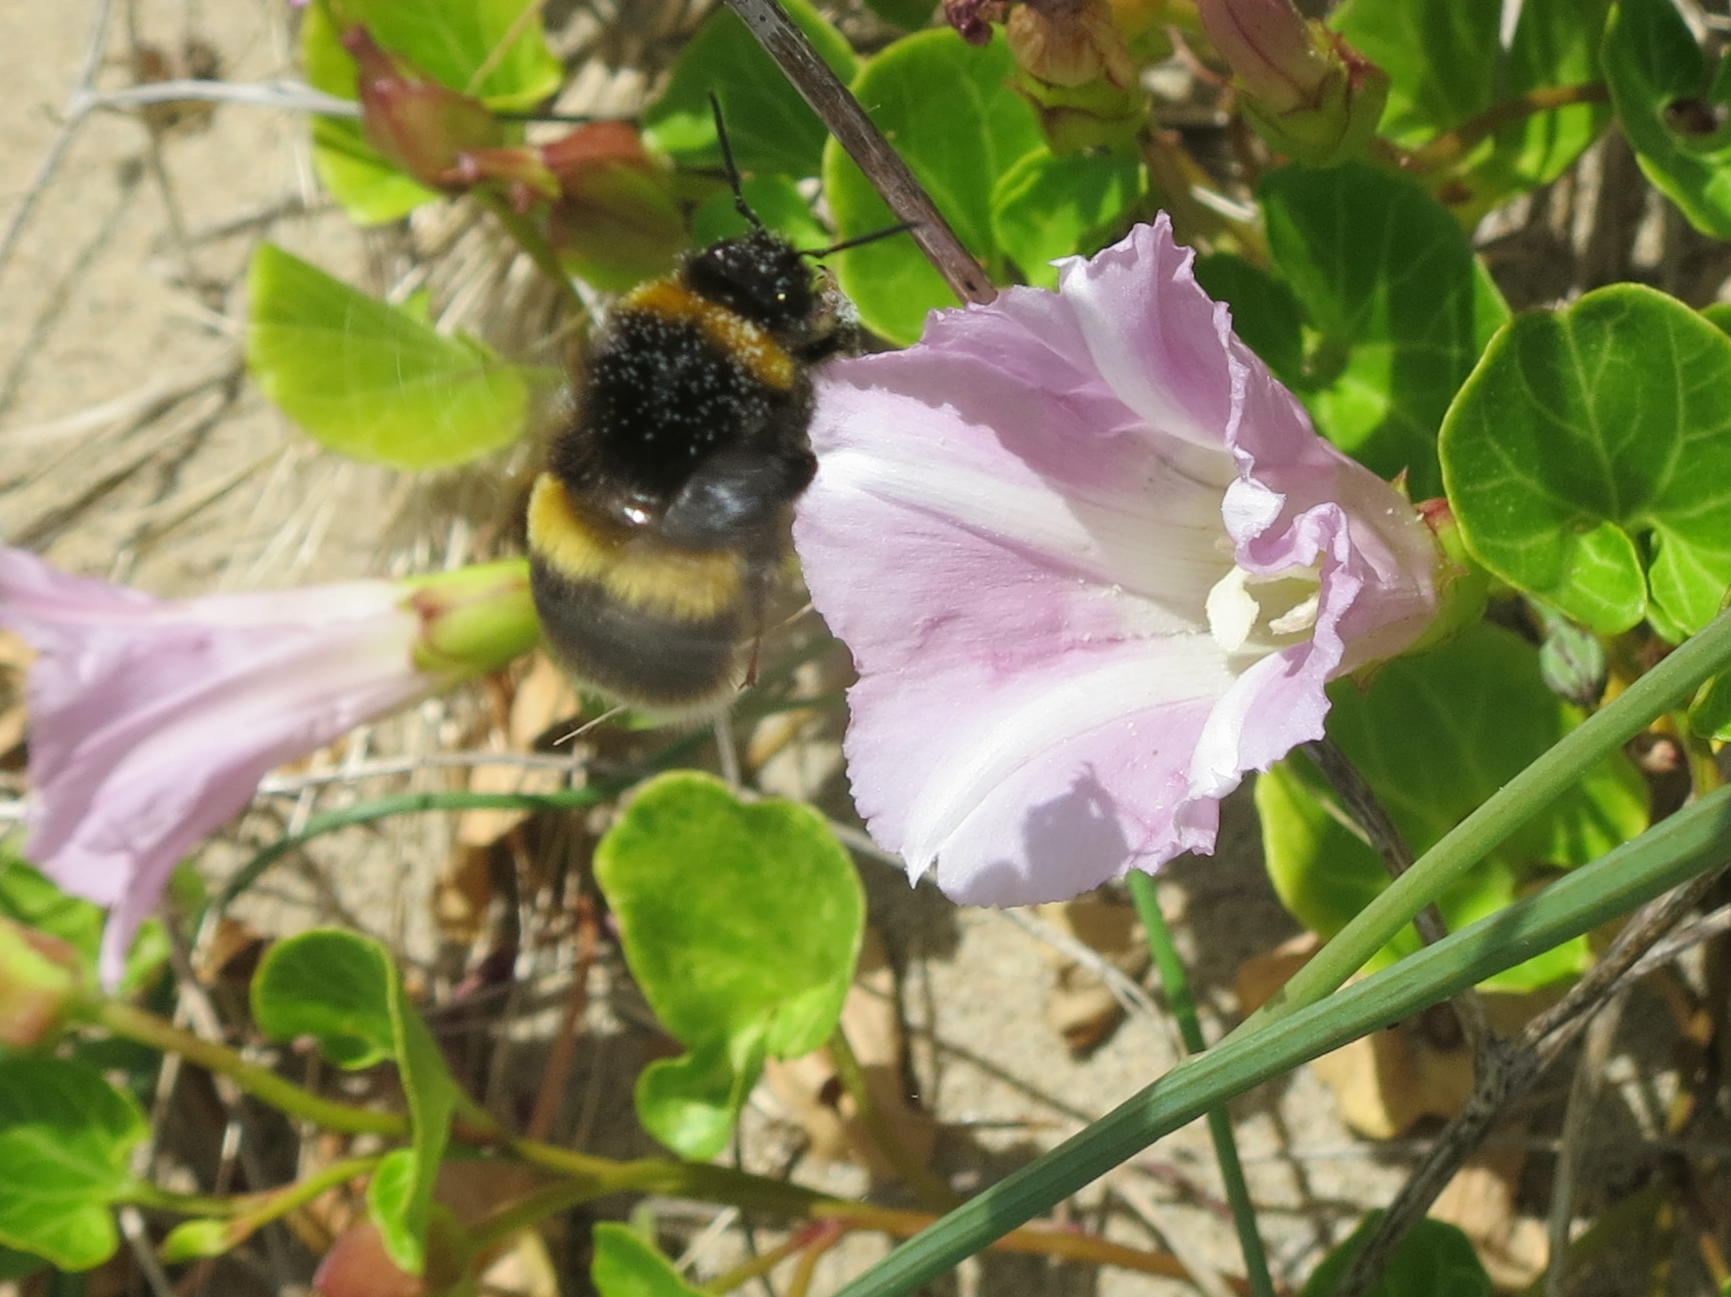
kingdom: Animalia
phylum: Arthropoda
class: Insecta
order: Hymenoptera
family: Apidae
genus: Bombus
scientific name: Bombus terrestris
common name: Buff-tailed bumblebee
